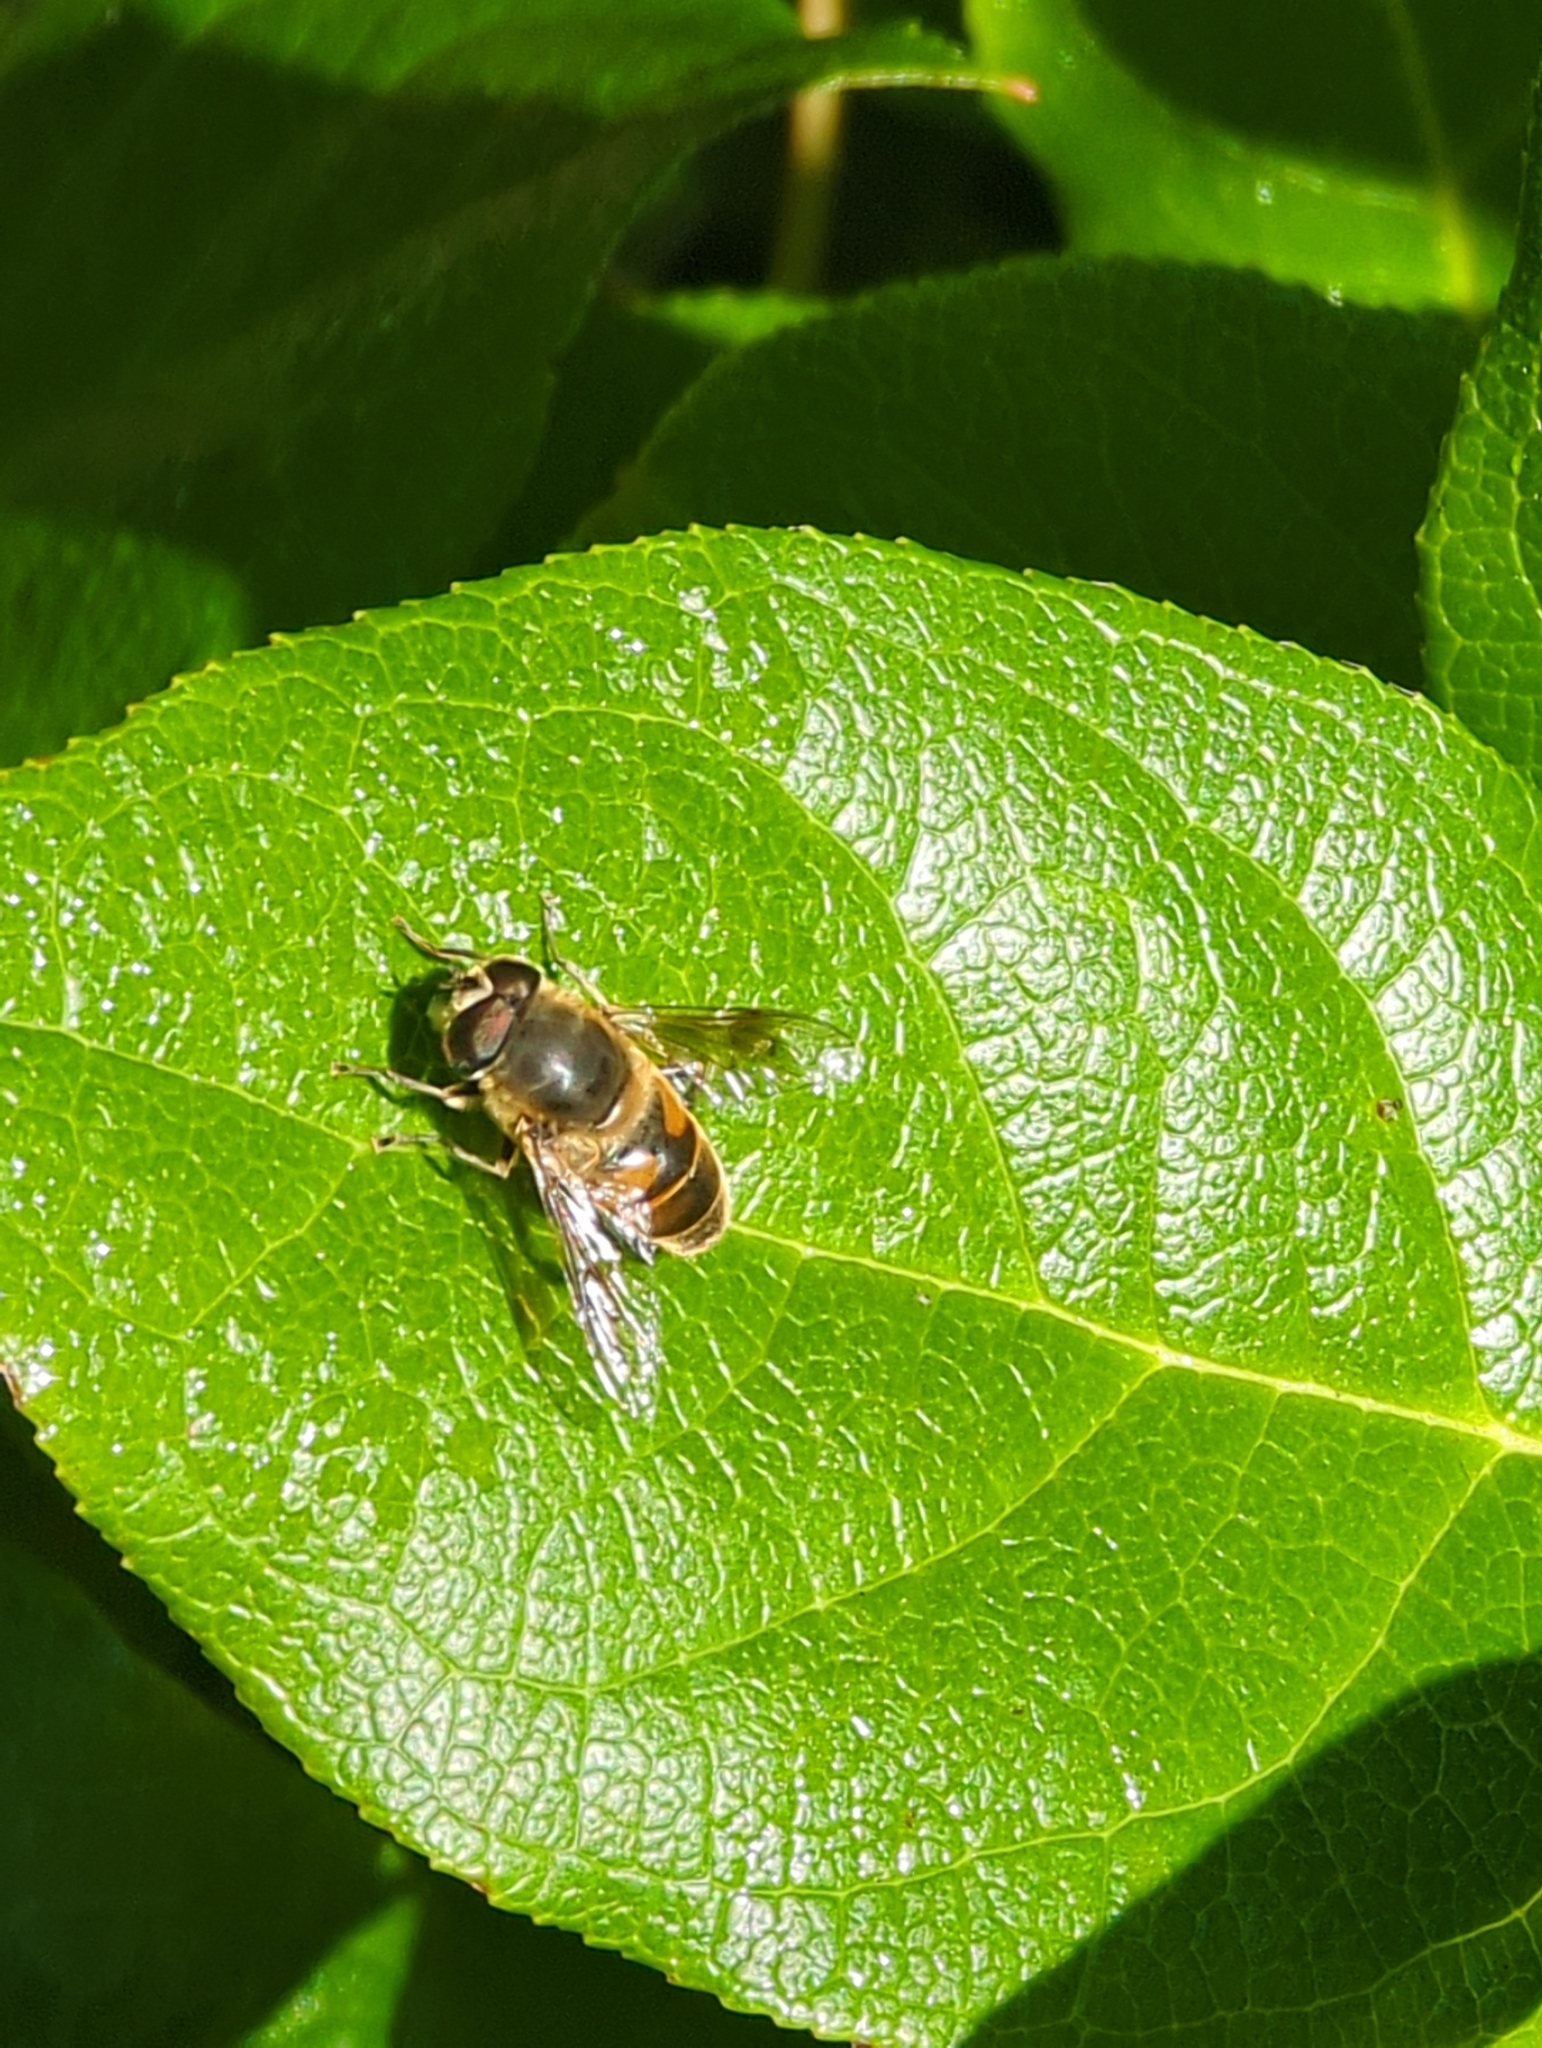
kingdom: Animalia
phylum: Arthropoda
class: Insecta
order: Diptera
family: Syrphidae
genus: Eristalis
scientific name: Eristalis tenax
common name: Drone fly
